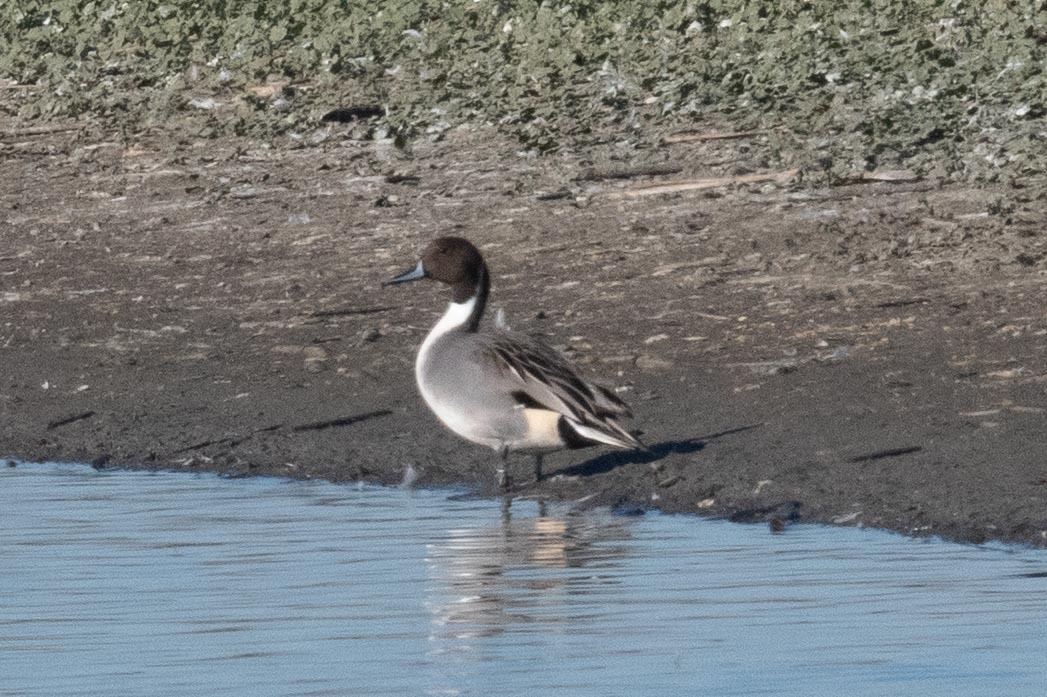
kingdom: Animalia
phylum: Chordata
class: Aves
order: Anseriformes
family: Anatidae
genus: Anas
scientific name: Anas acuta
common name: Northern pintail
